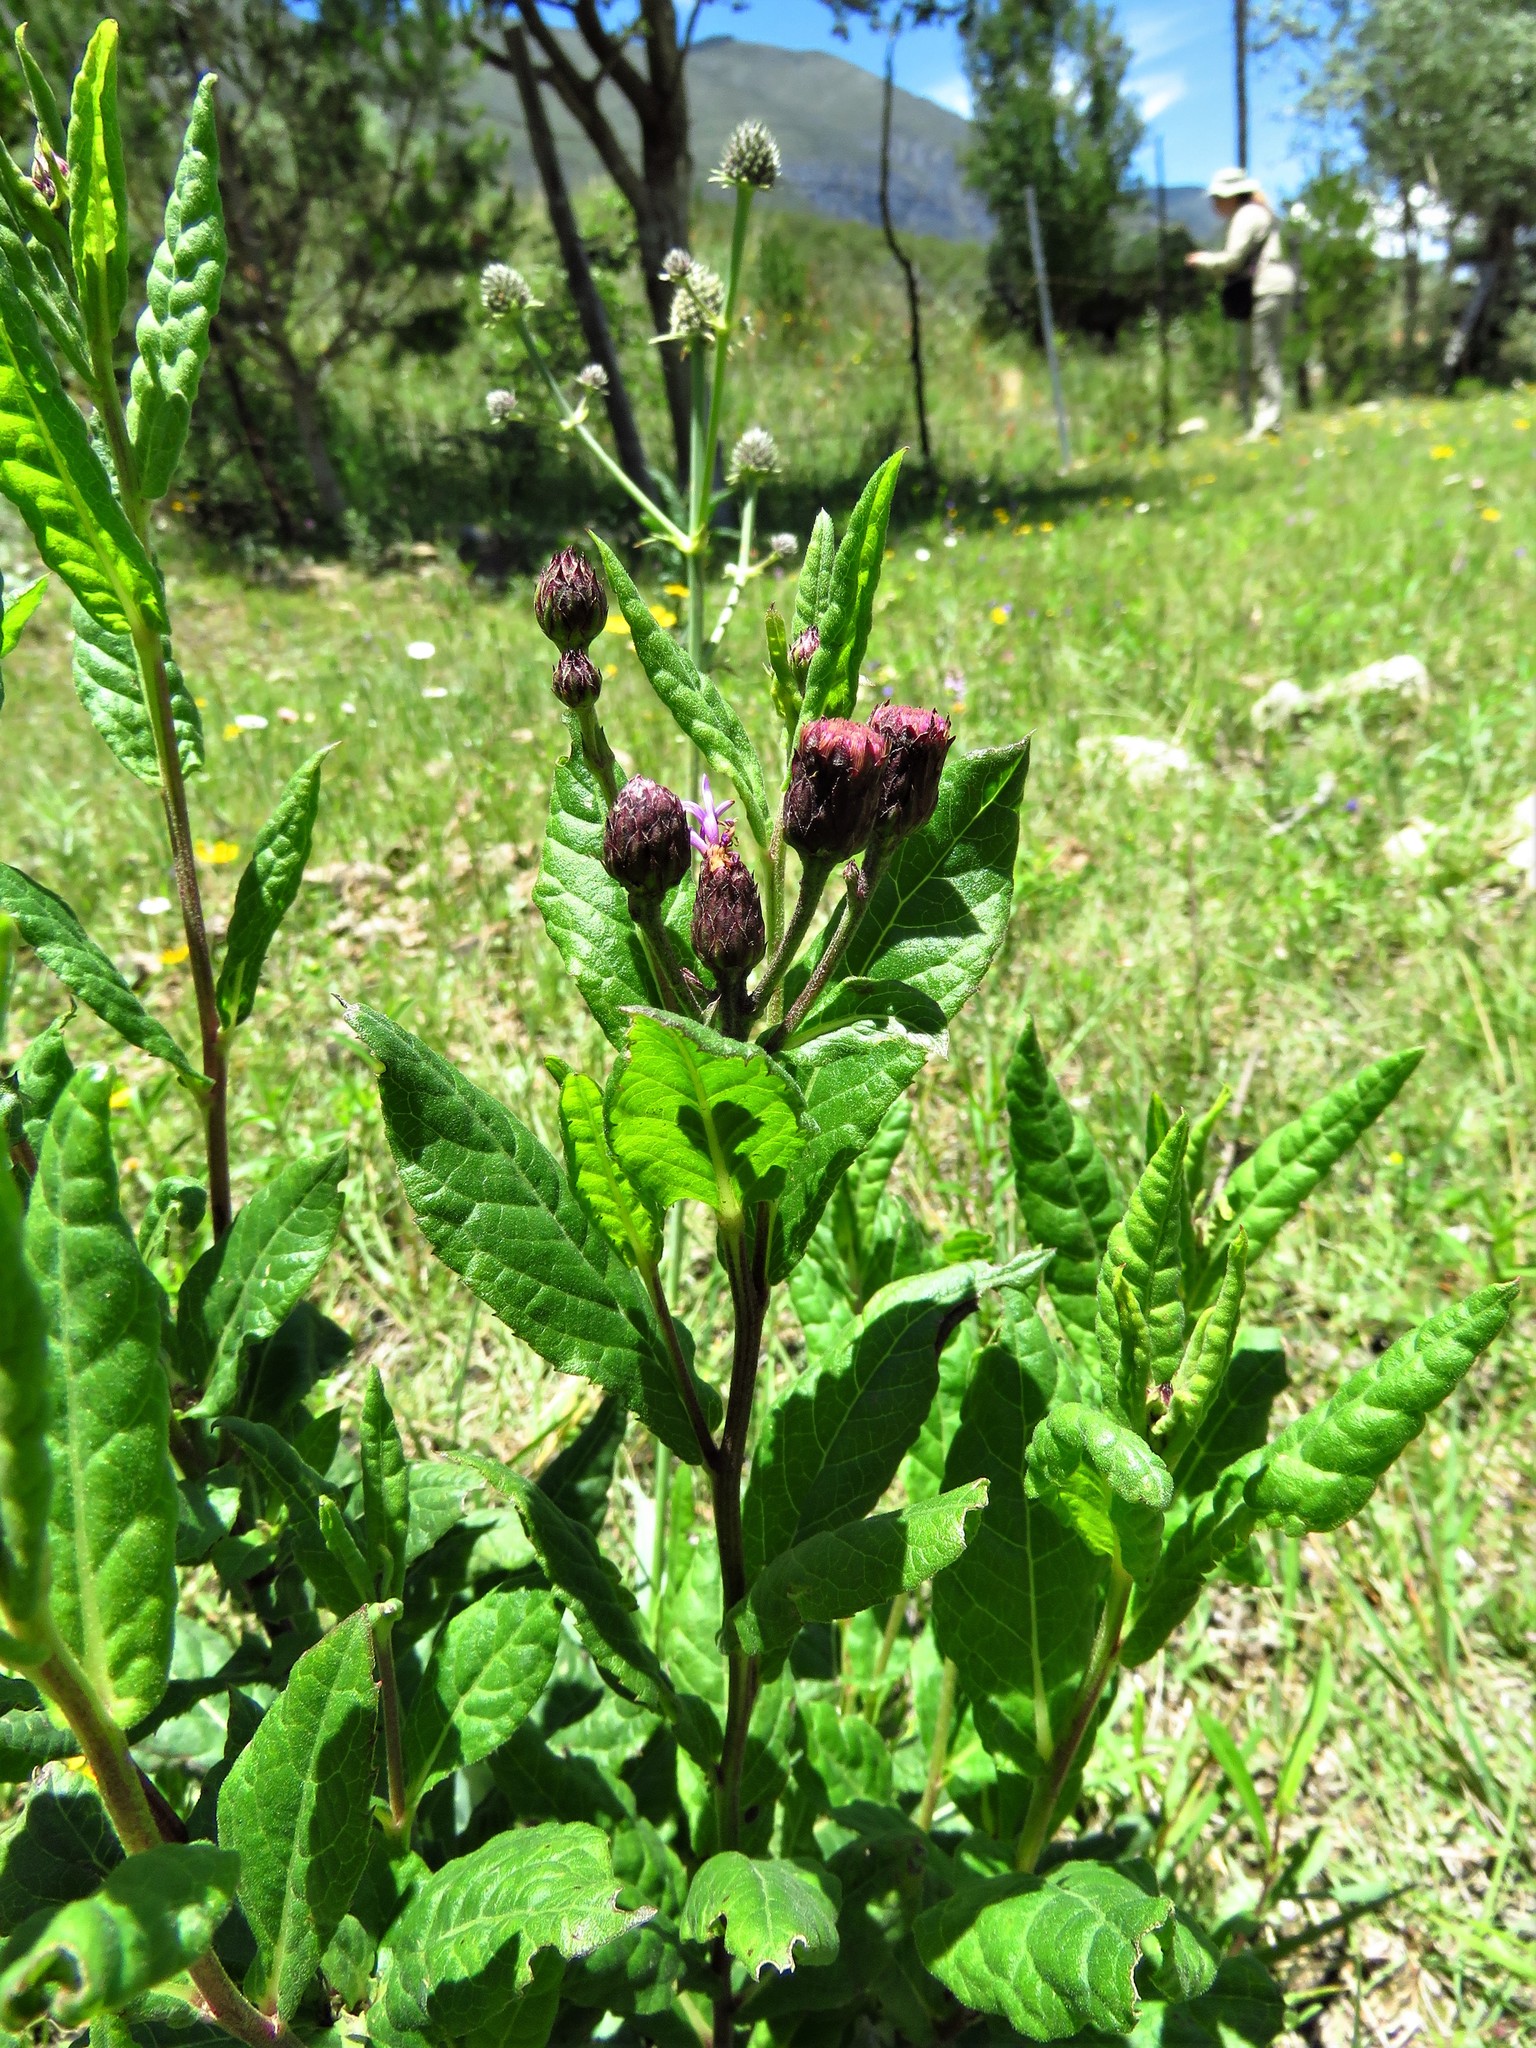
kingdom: Plantae
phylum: Tracheophyta
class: Magnoliopsida
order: Asterales
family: Asteraceae
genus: Vernonia
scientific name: Vernonia greggii
